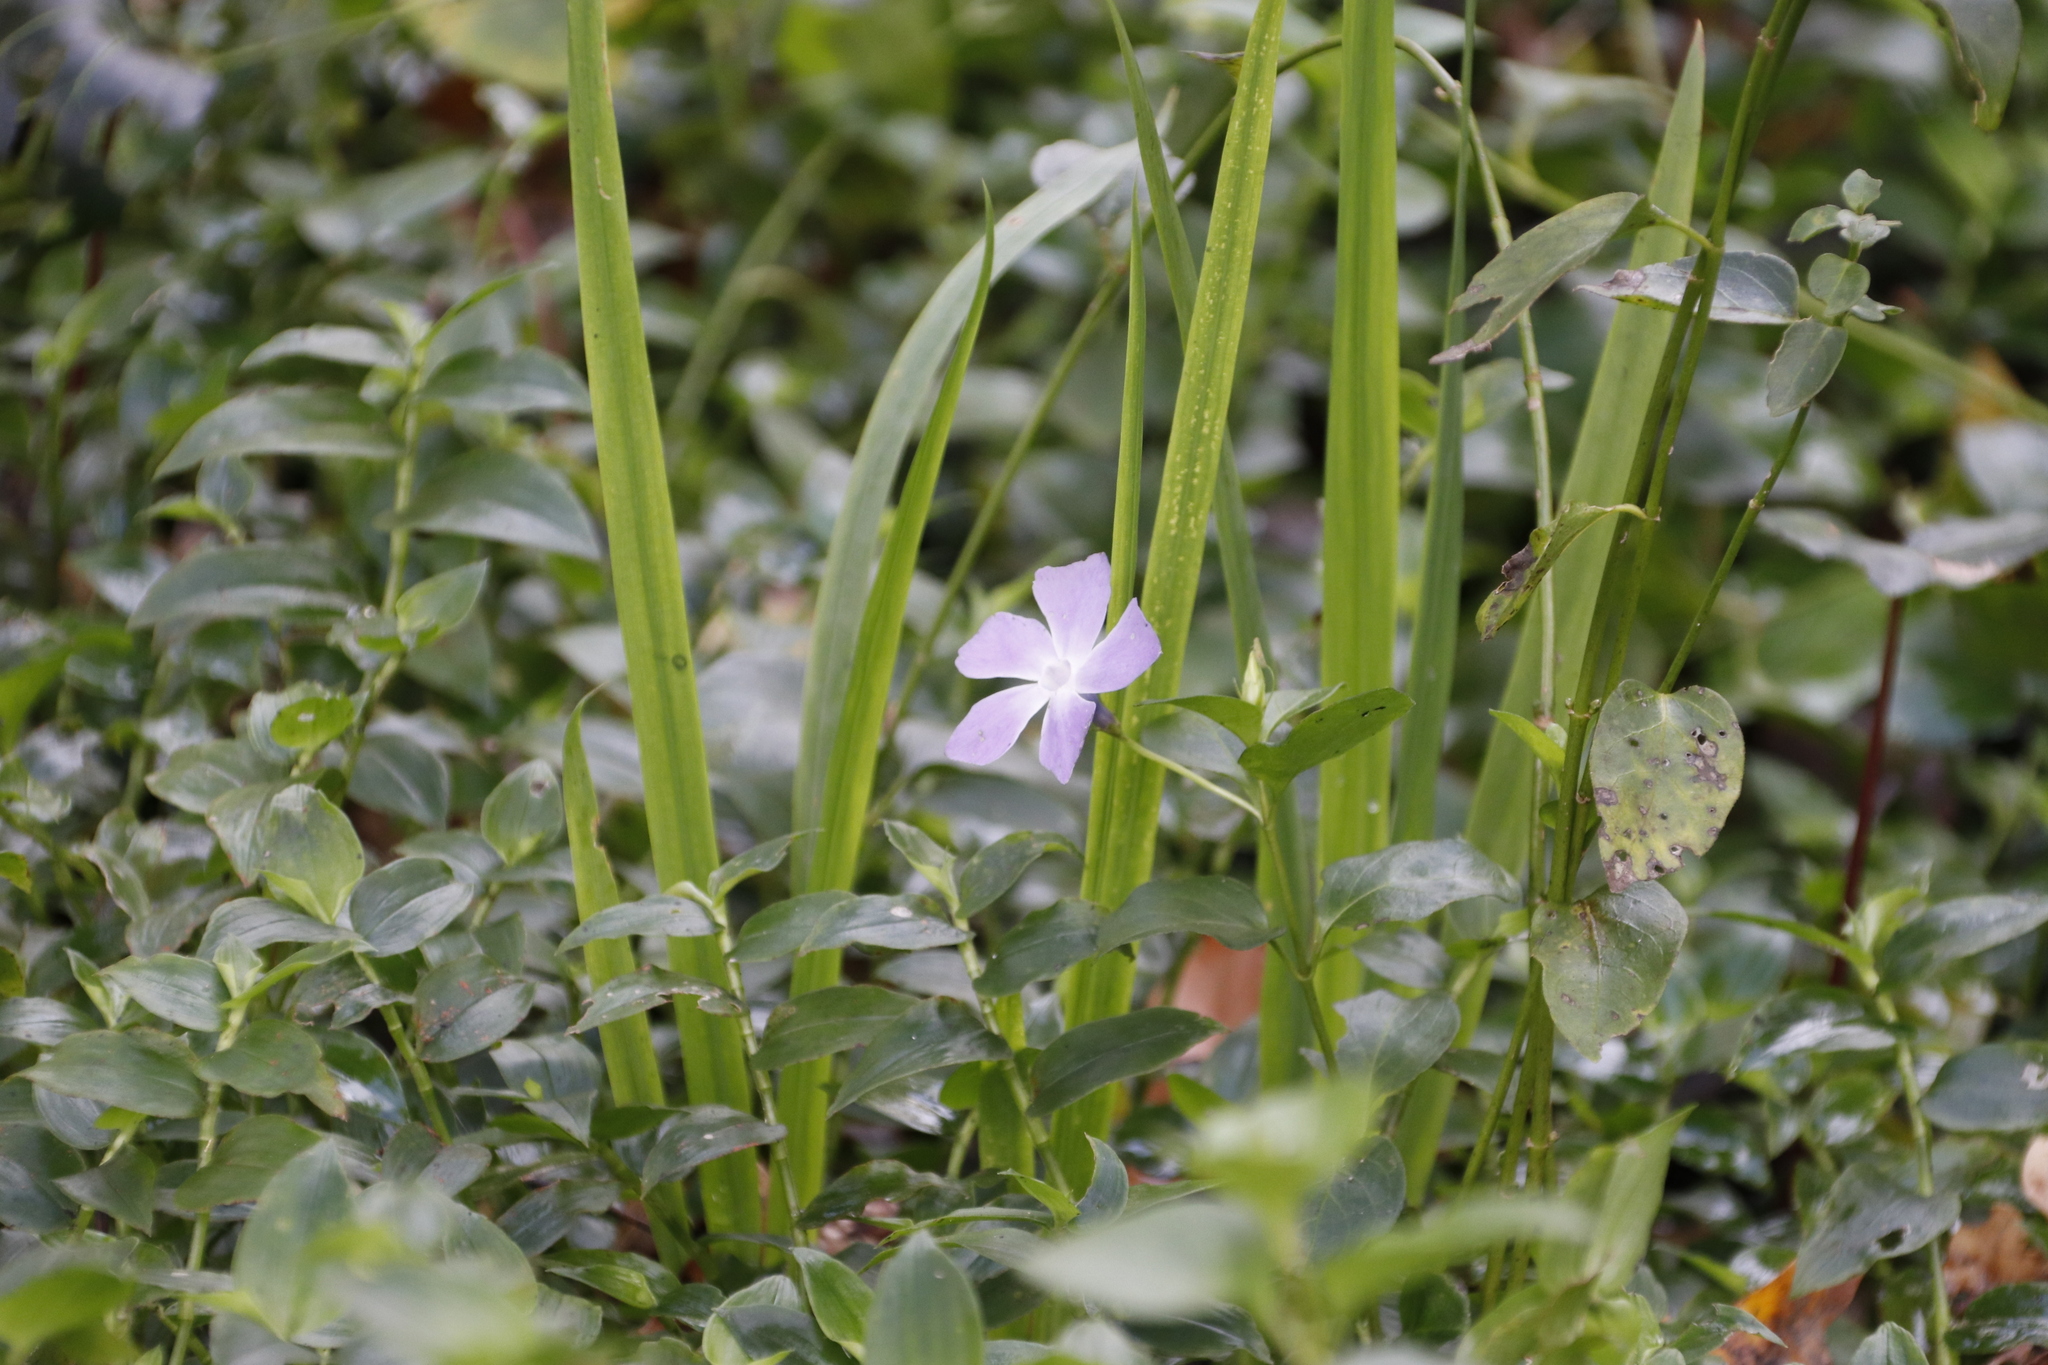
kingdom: Plantae
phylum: Tracheophyta
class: Magnoliopsida
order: Gentianales
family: Apocynaceae
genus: Vinca
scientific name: Vinca major
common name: Greater periwinkle
